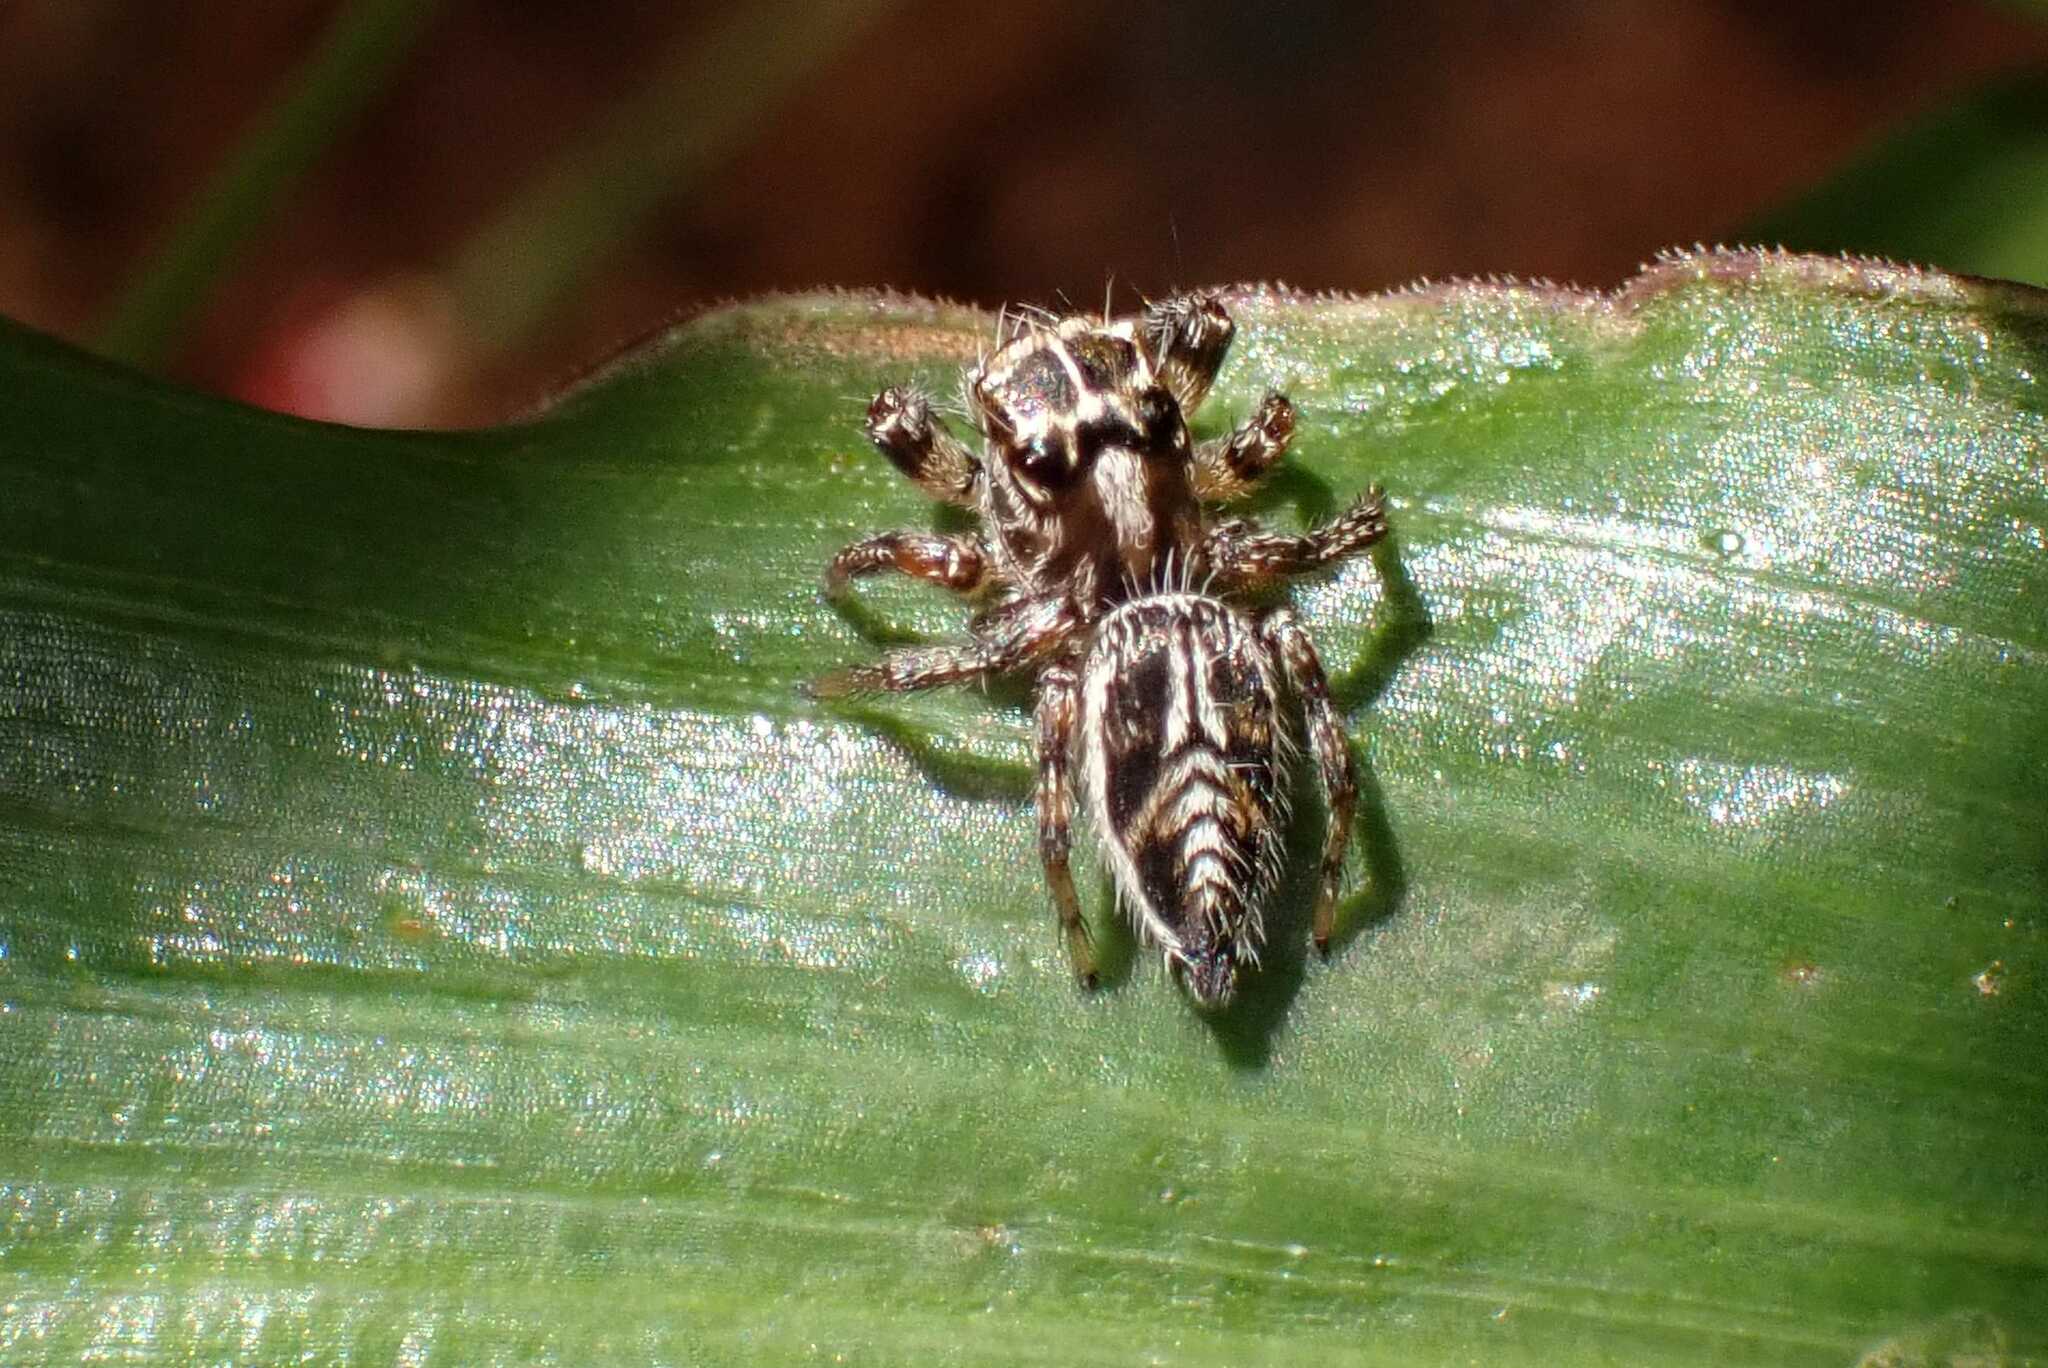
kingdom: Animalia
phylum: Arthropoda
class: Arachnida
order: Araneae
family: Salticidae
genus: Hyllus
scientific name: Hyllus argyrotoxus
